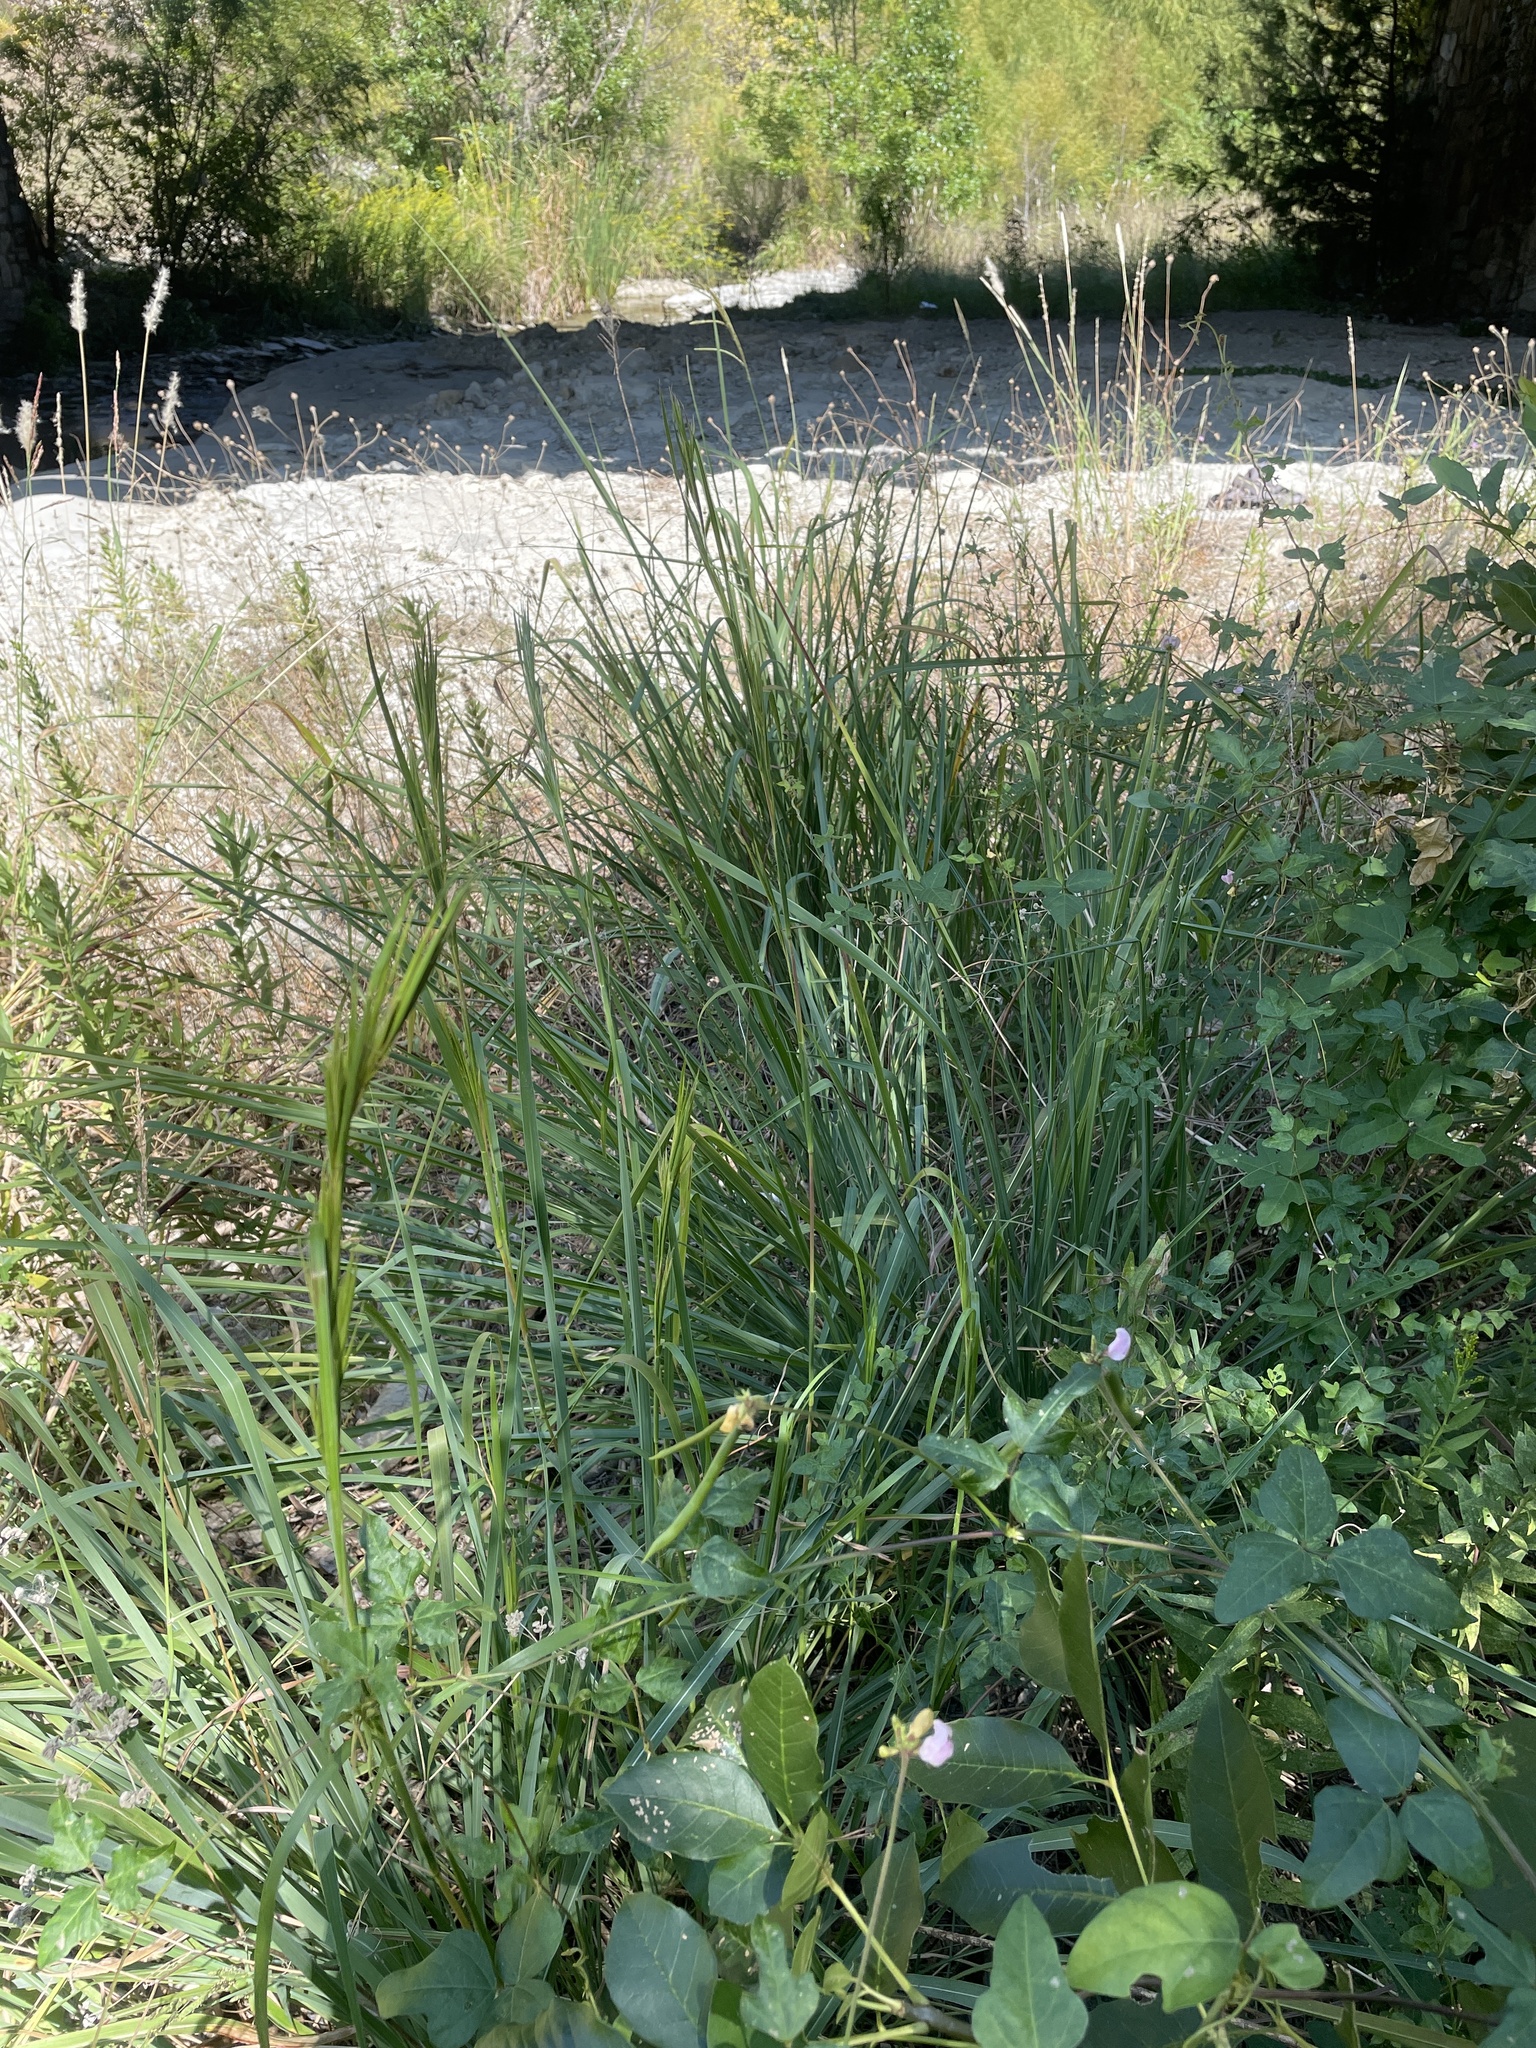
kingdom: Plantae
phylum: Tracheophyta
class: Liliopsida
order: Poales
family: Poaceae
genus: Andropogon
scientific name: Andropogon tenuispatheus
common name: Bushy bluestem
